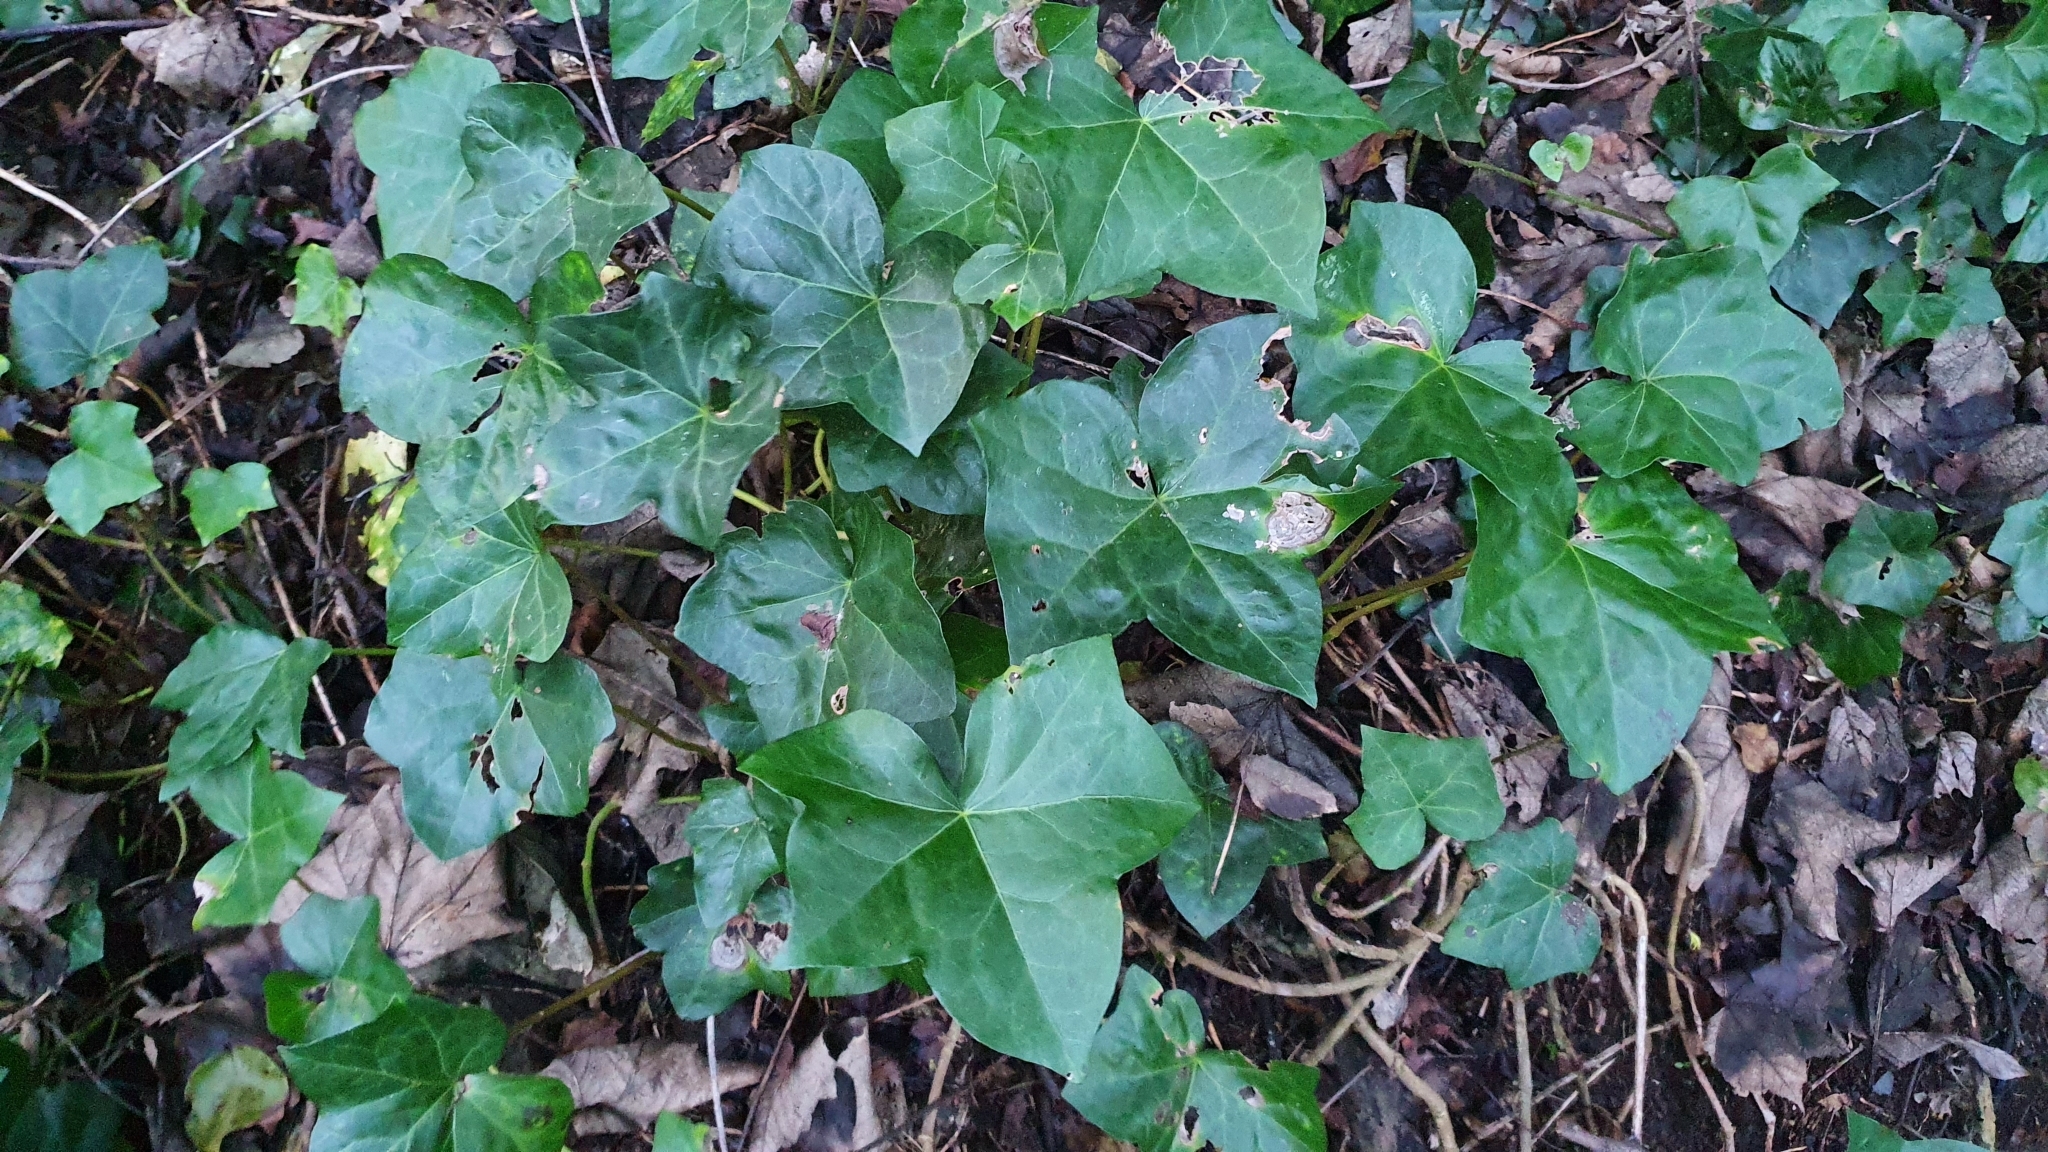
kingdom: Plantae
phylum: Tracheophyta
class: Magnoliopsida
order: Apiales
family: Araliaceae
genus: Hedera
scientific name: Hedera helix
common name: Ivy
